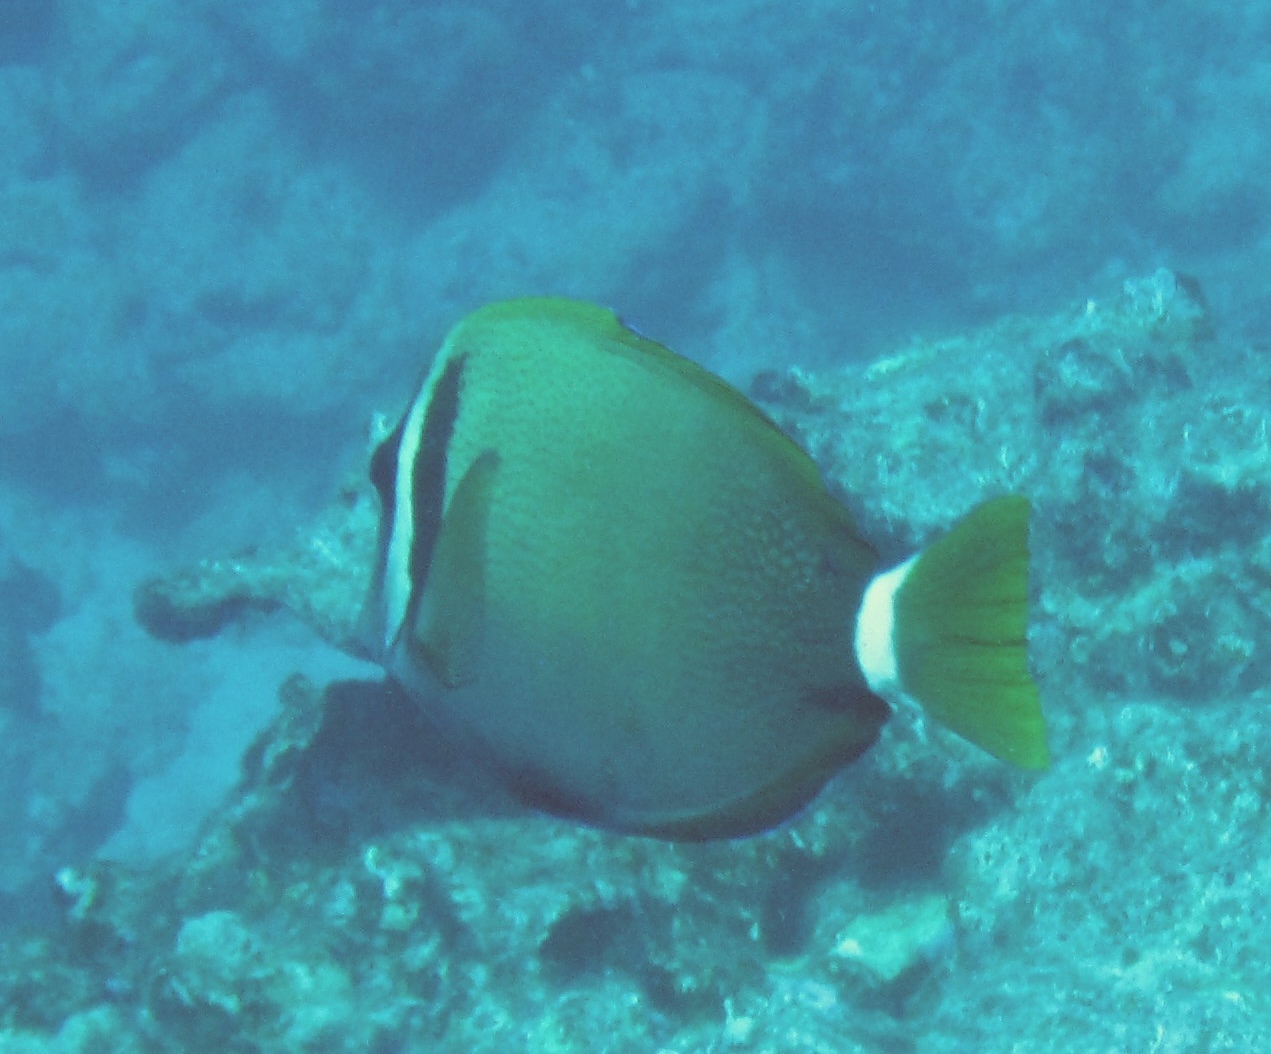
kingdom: Animalia
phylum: Chordata
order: Perciformes
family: Acanthuridae
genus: Acanthurus
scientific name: Acanthurus leucopareius
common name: Head-band surgeonfish
